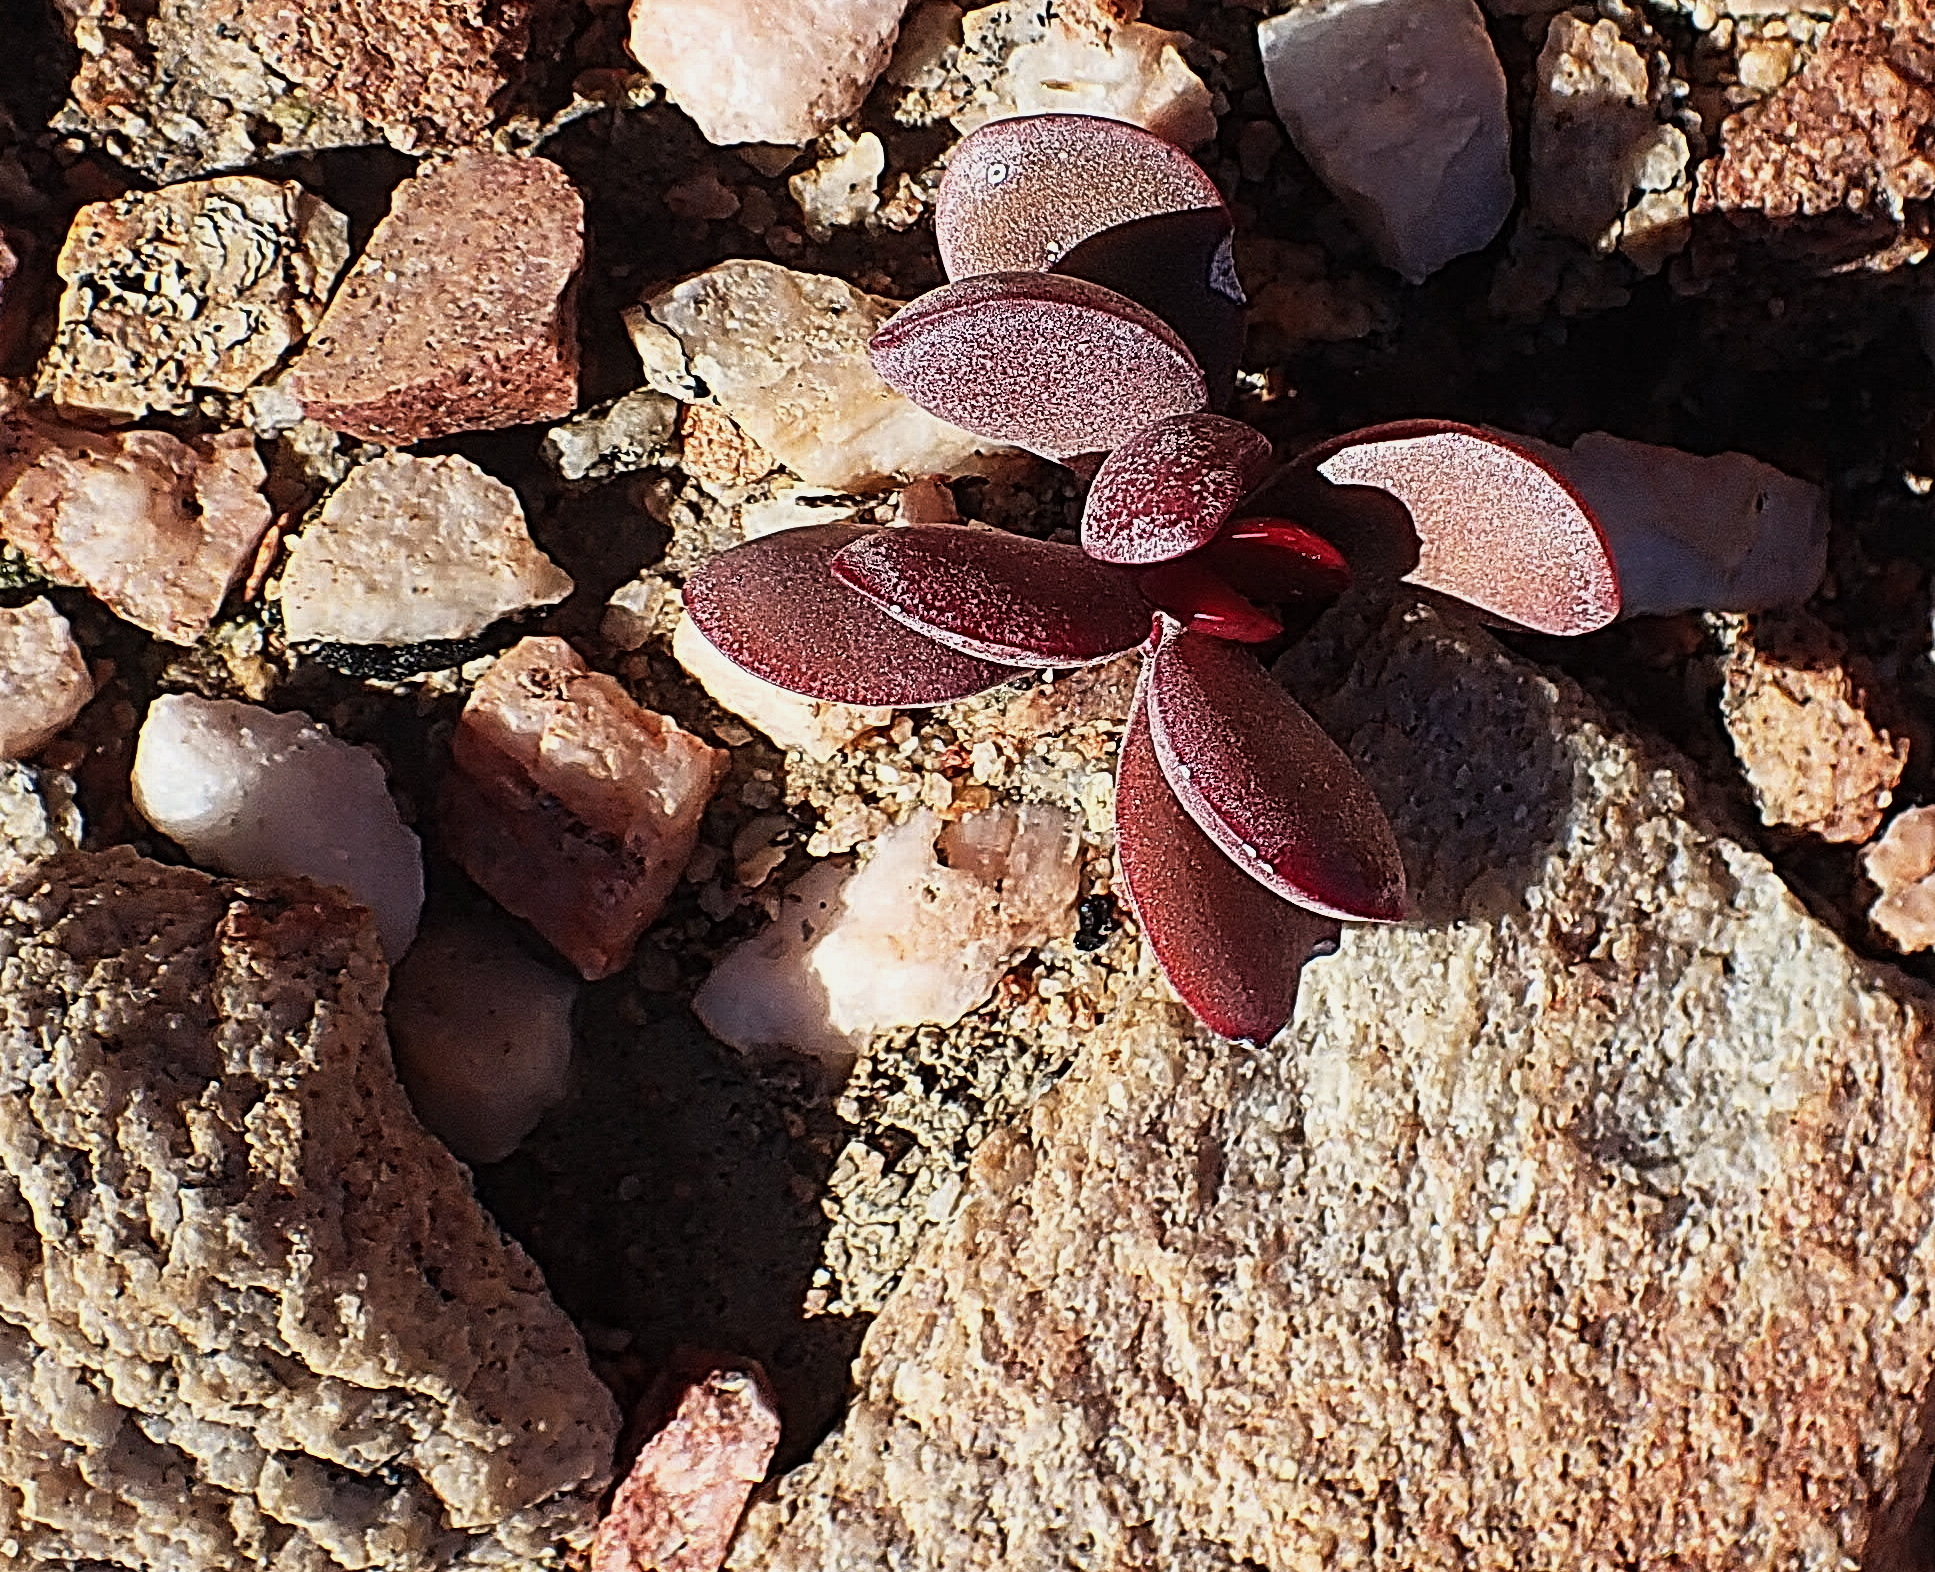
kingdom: Plantae
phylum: Tracheophyta
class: Magnoliopsida
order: Saxifragales
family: Crassulaceae
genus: Crassula
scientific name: Crassula atropurpurea
